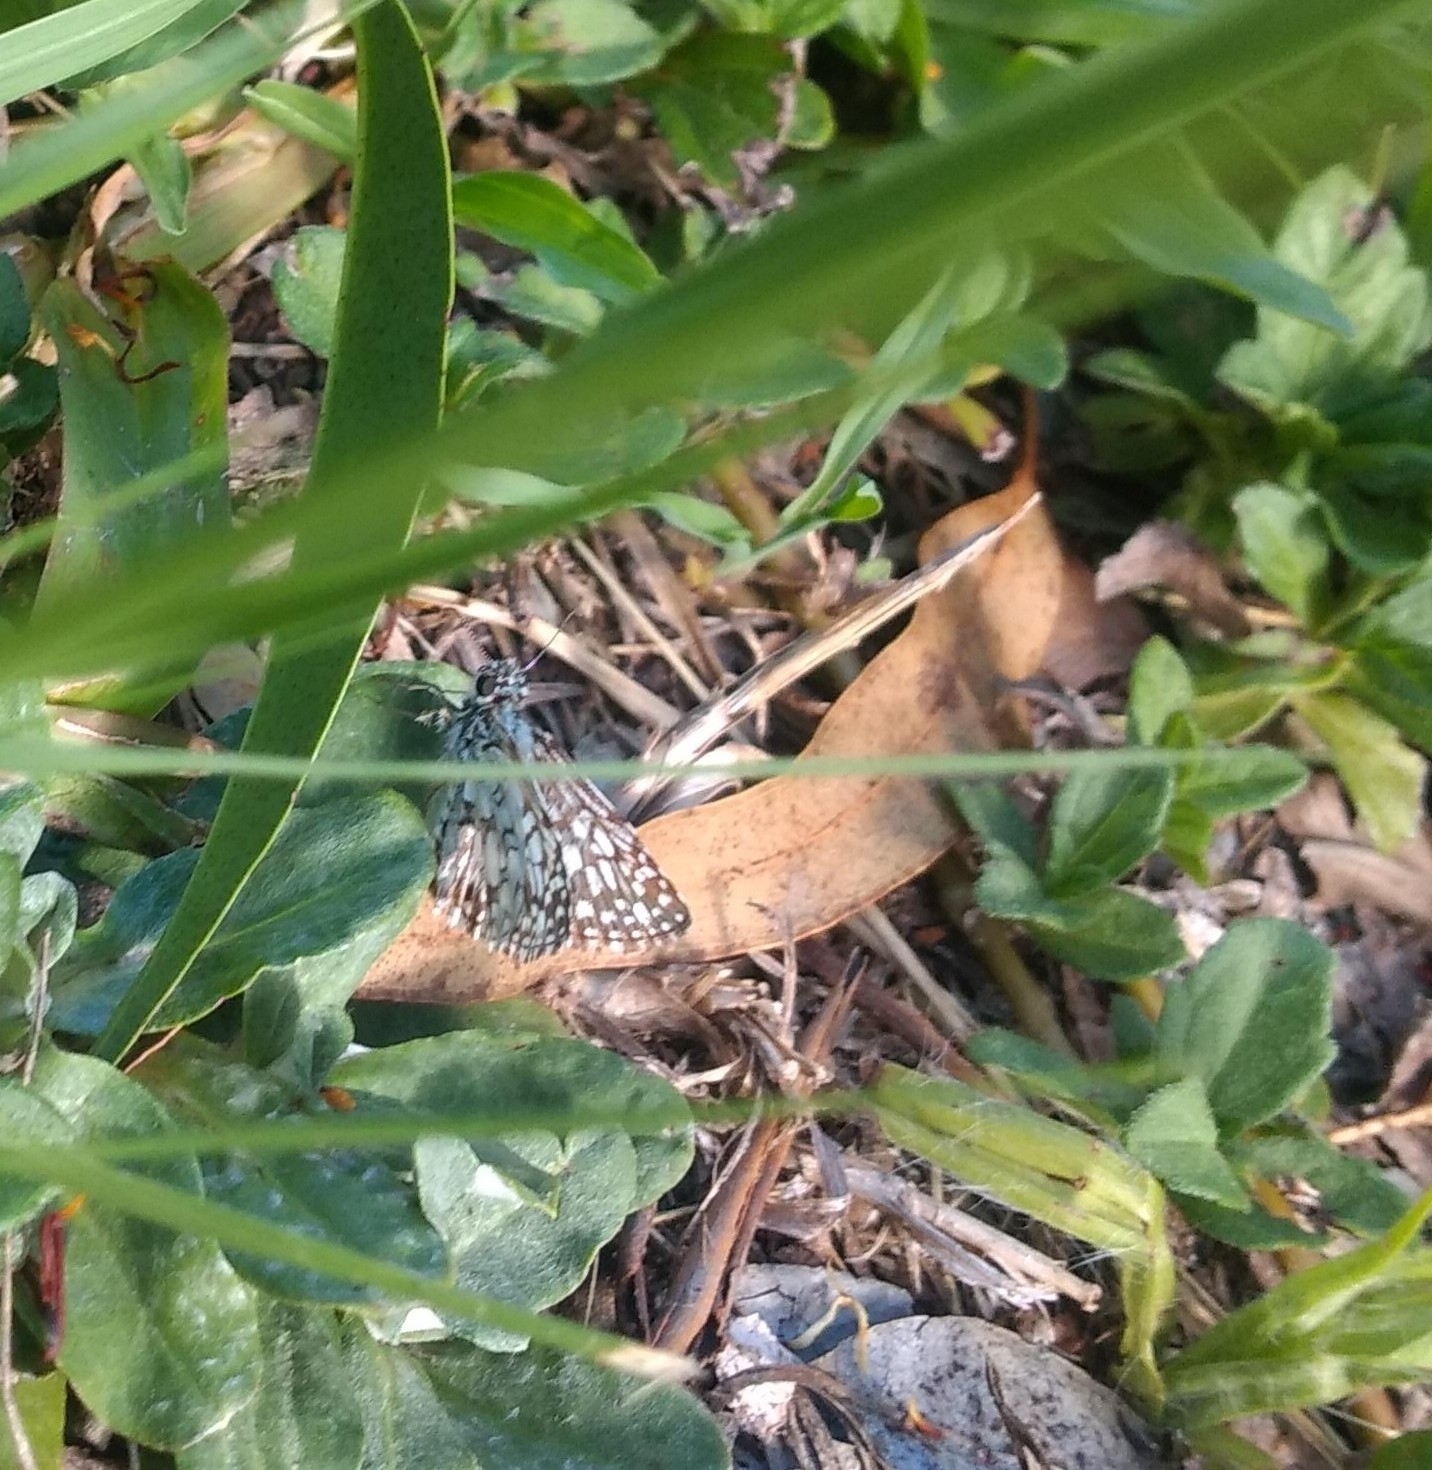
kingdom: Animalia
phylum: Arthropoda
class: Insecta
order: Lepidoptera
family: Hesperiidae
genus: Pyrgus
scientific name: Pyrgus oileus
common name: Tropical checkered-skipper
